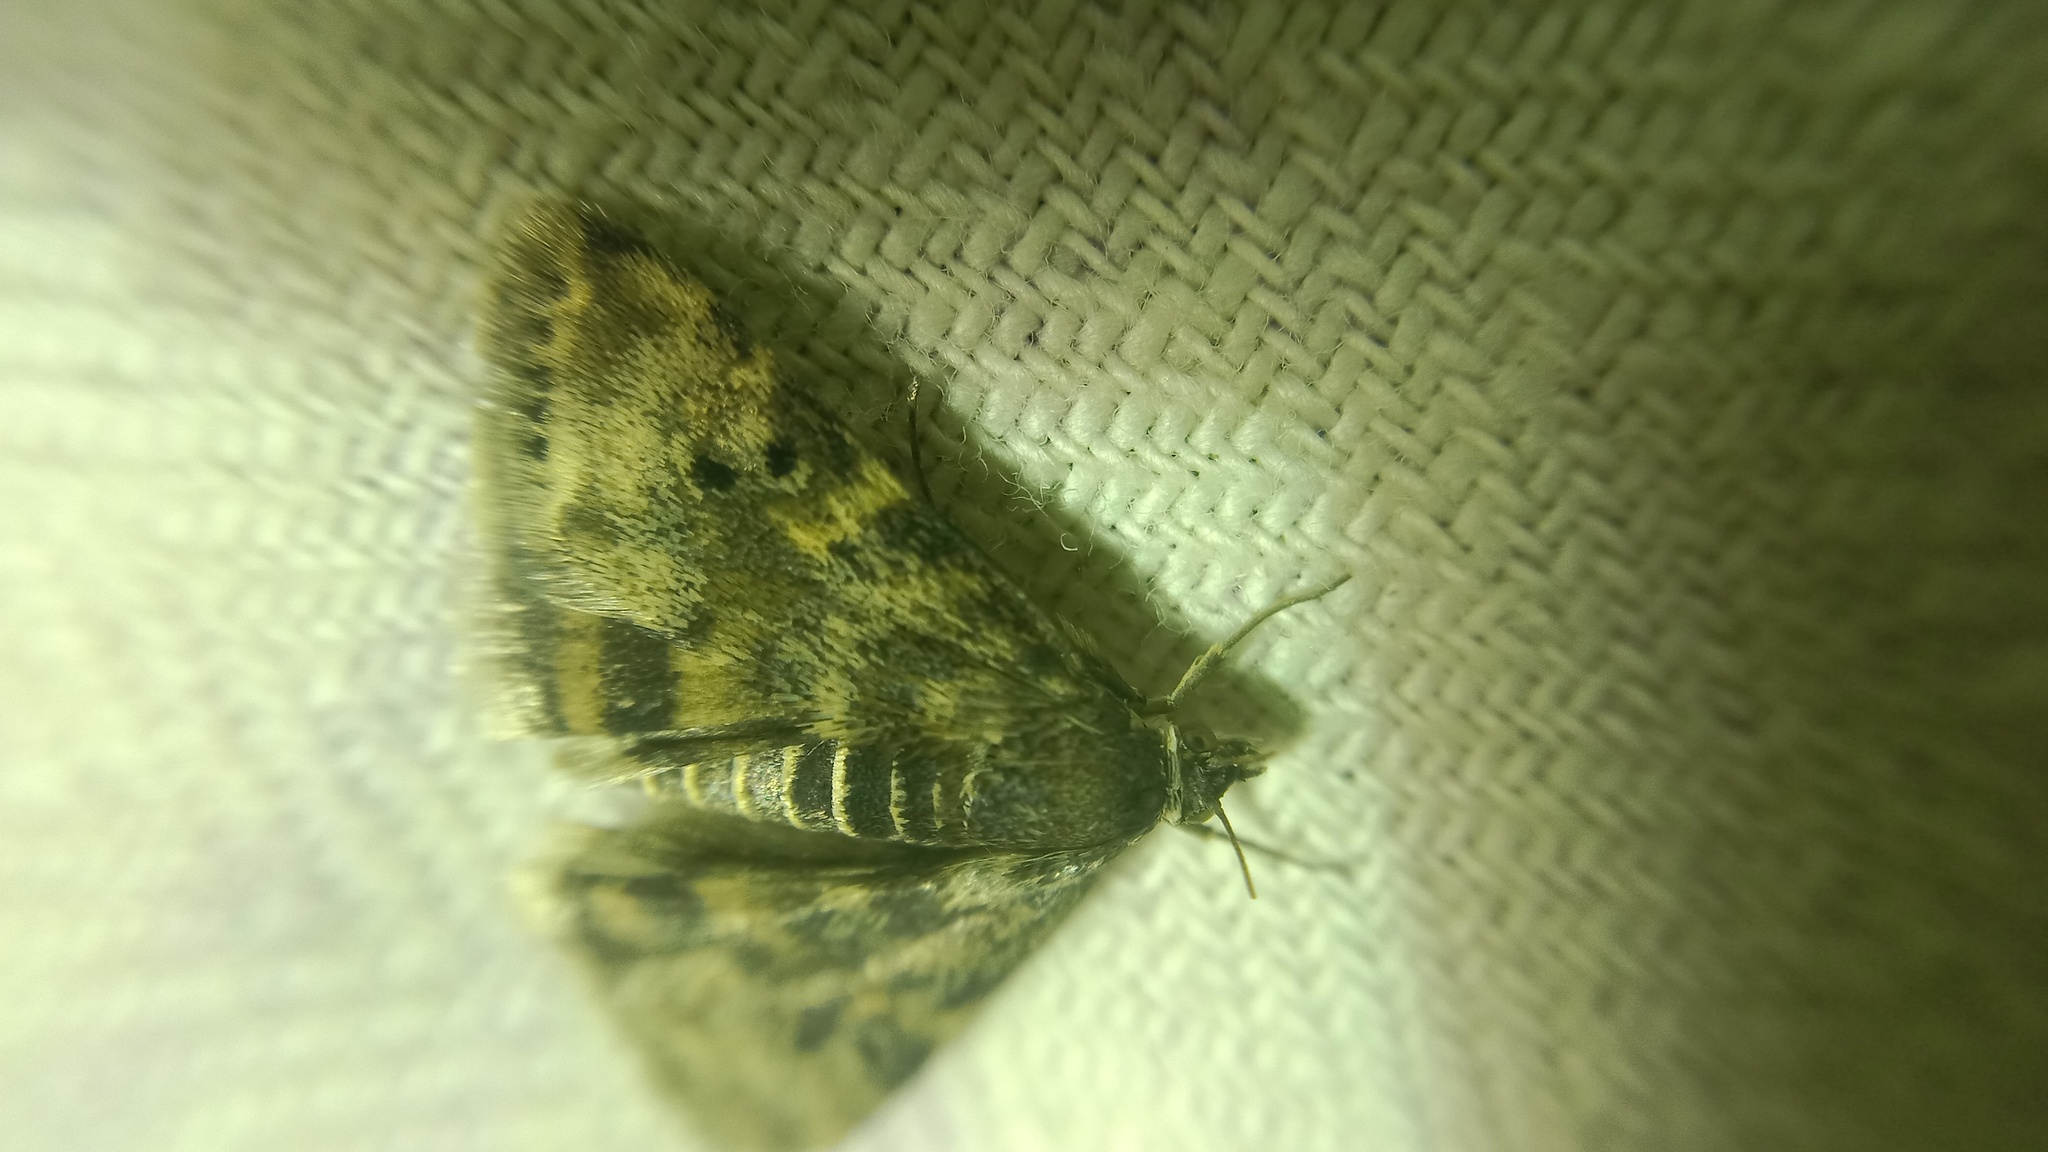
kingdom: Animalia
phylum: Arthropoda
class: Insecta
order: Lepidoptera
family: Crambidae
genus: Noctuelia
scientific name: Noctuelia Aporodes floralis
